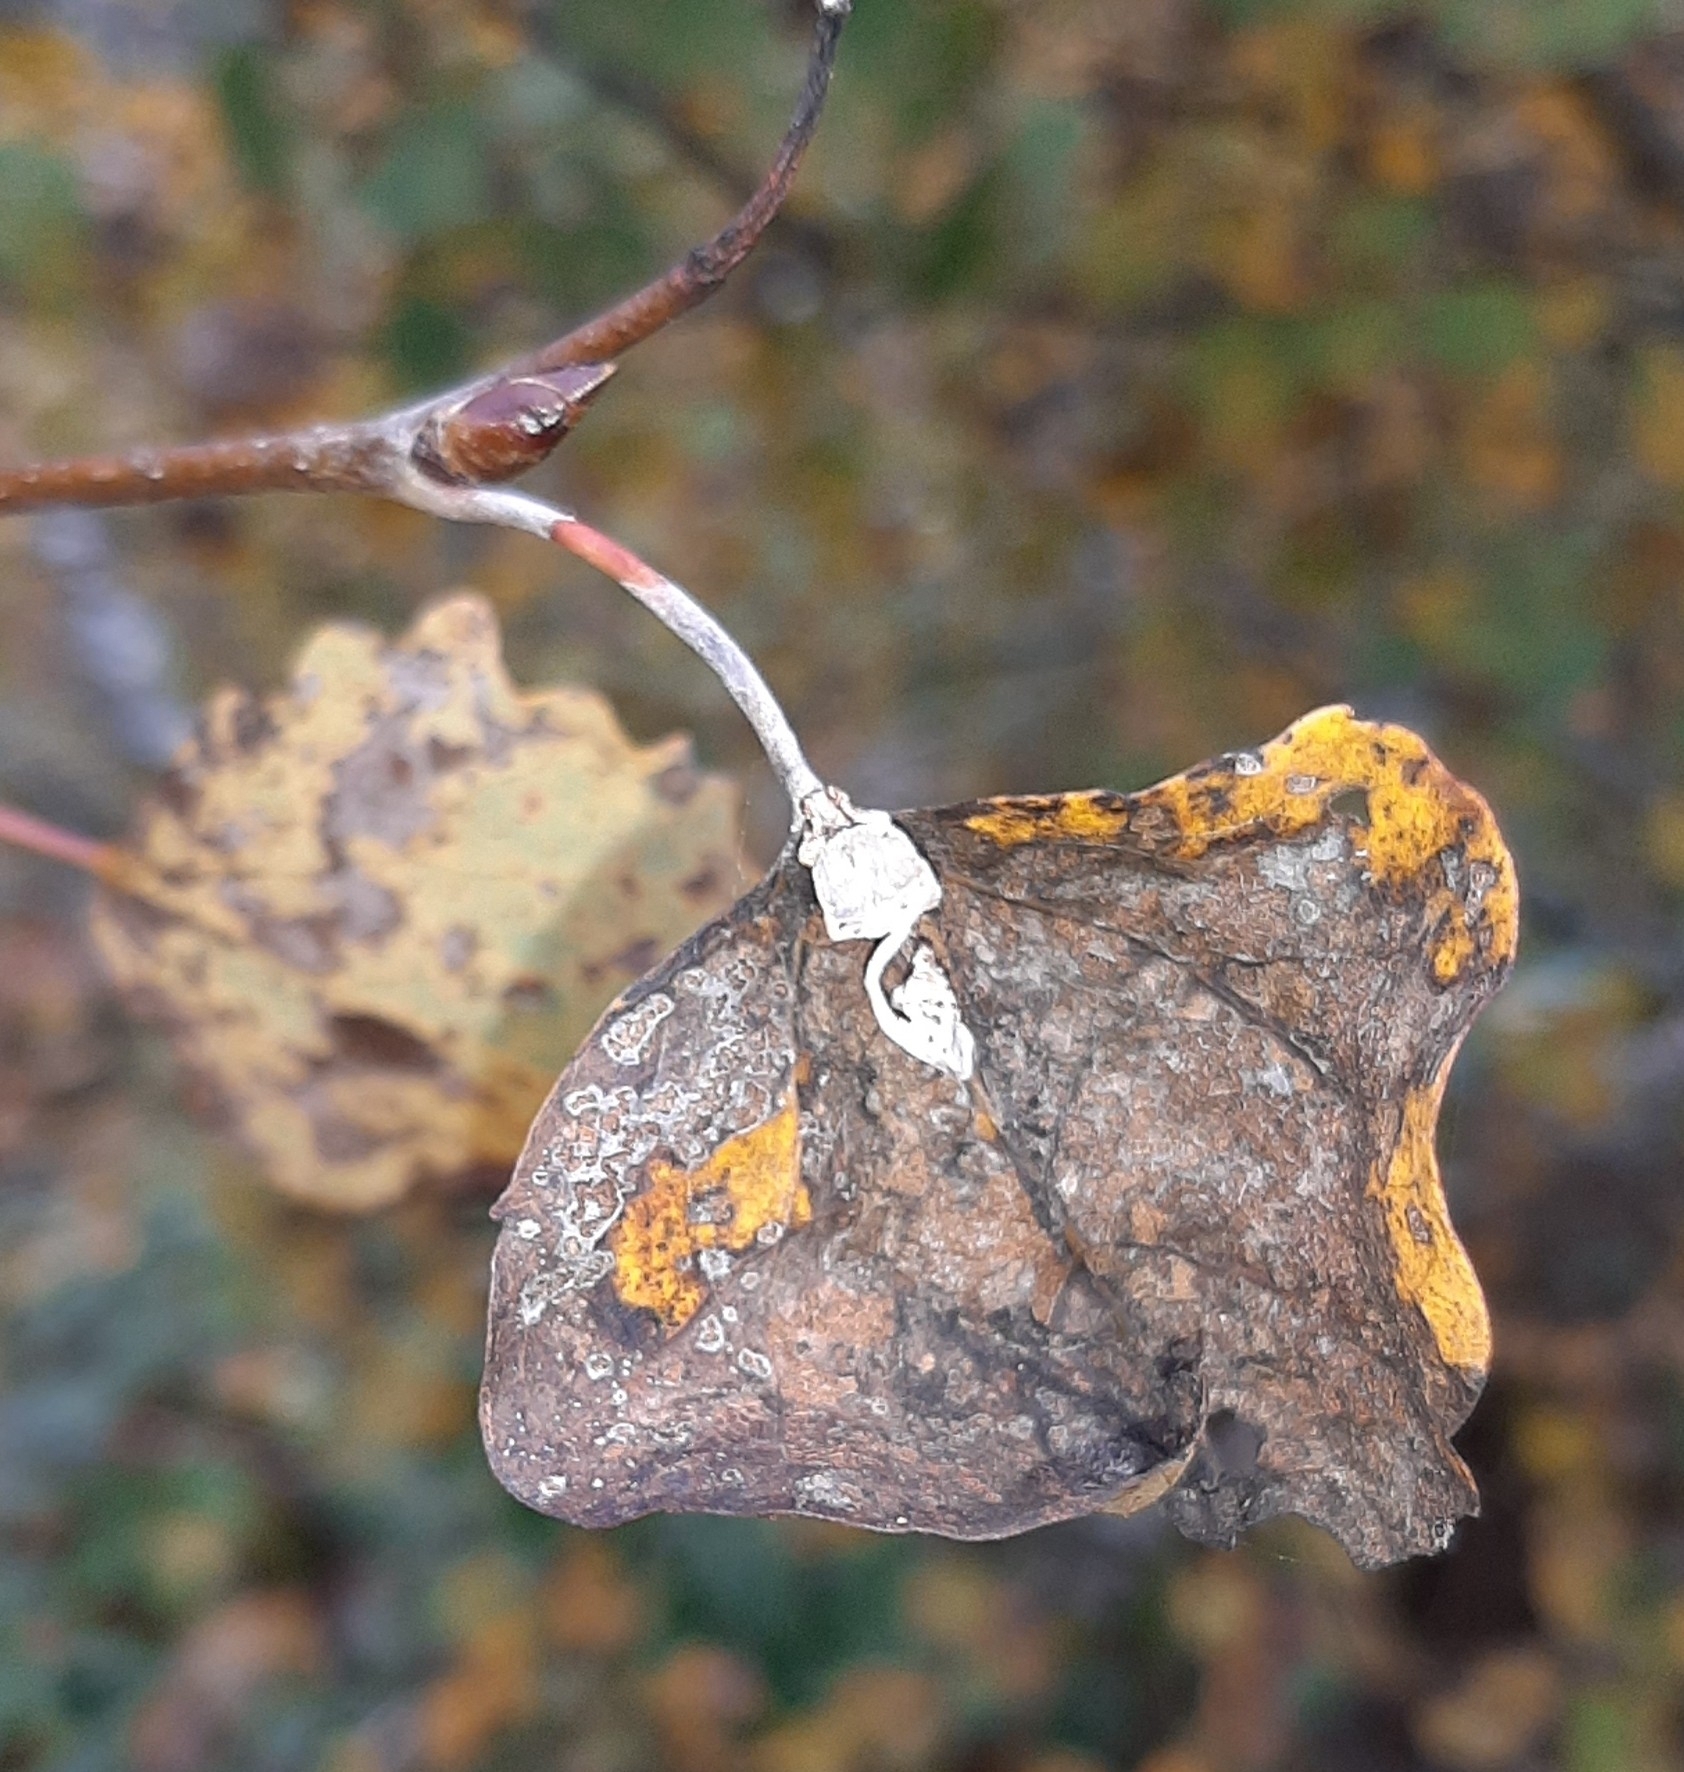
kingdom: Animalia
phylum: Arthropoda
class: Insecta
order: Lepidoptera
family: Nymphalidae
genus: Limenitis
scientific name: Limenitis populi
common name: Poplar admiral
